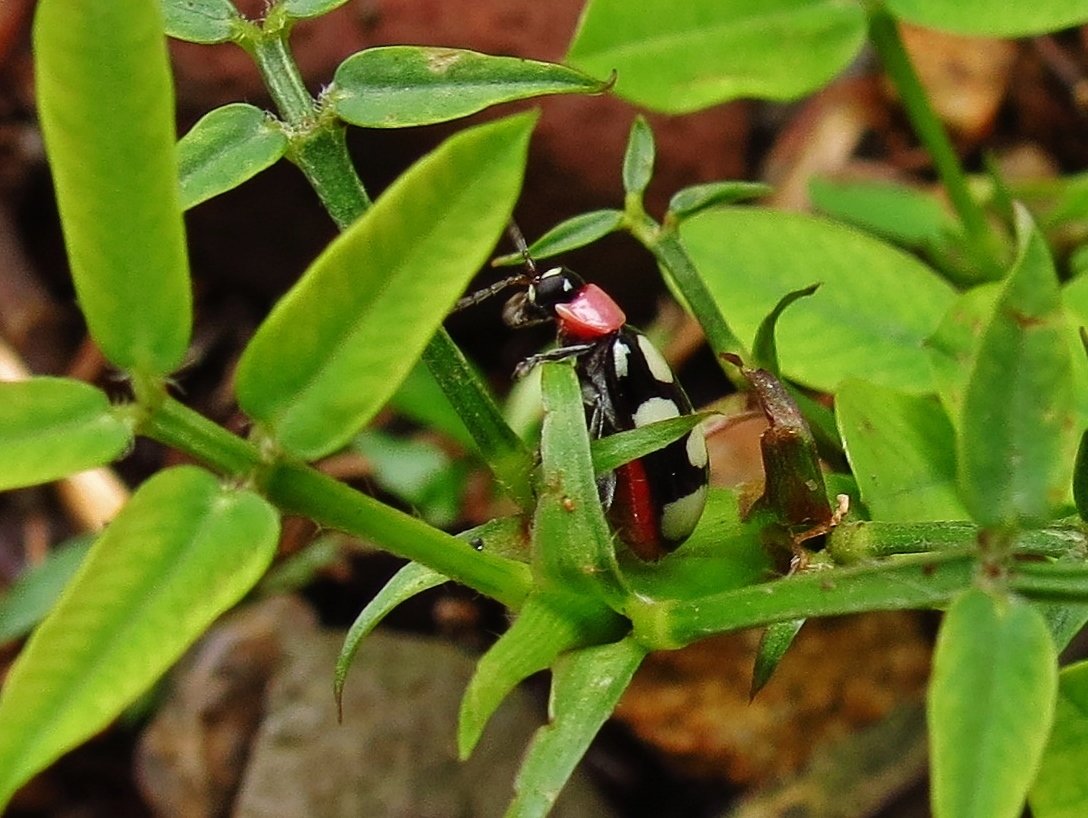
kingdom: Animalia
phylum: Arthropoda
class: Insecta
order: Coleoptera
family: Chrysomelidae
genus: Omophoita
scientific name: Omophoita aequinoctialis
